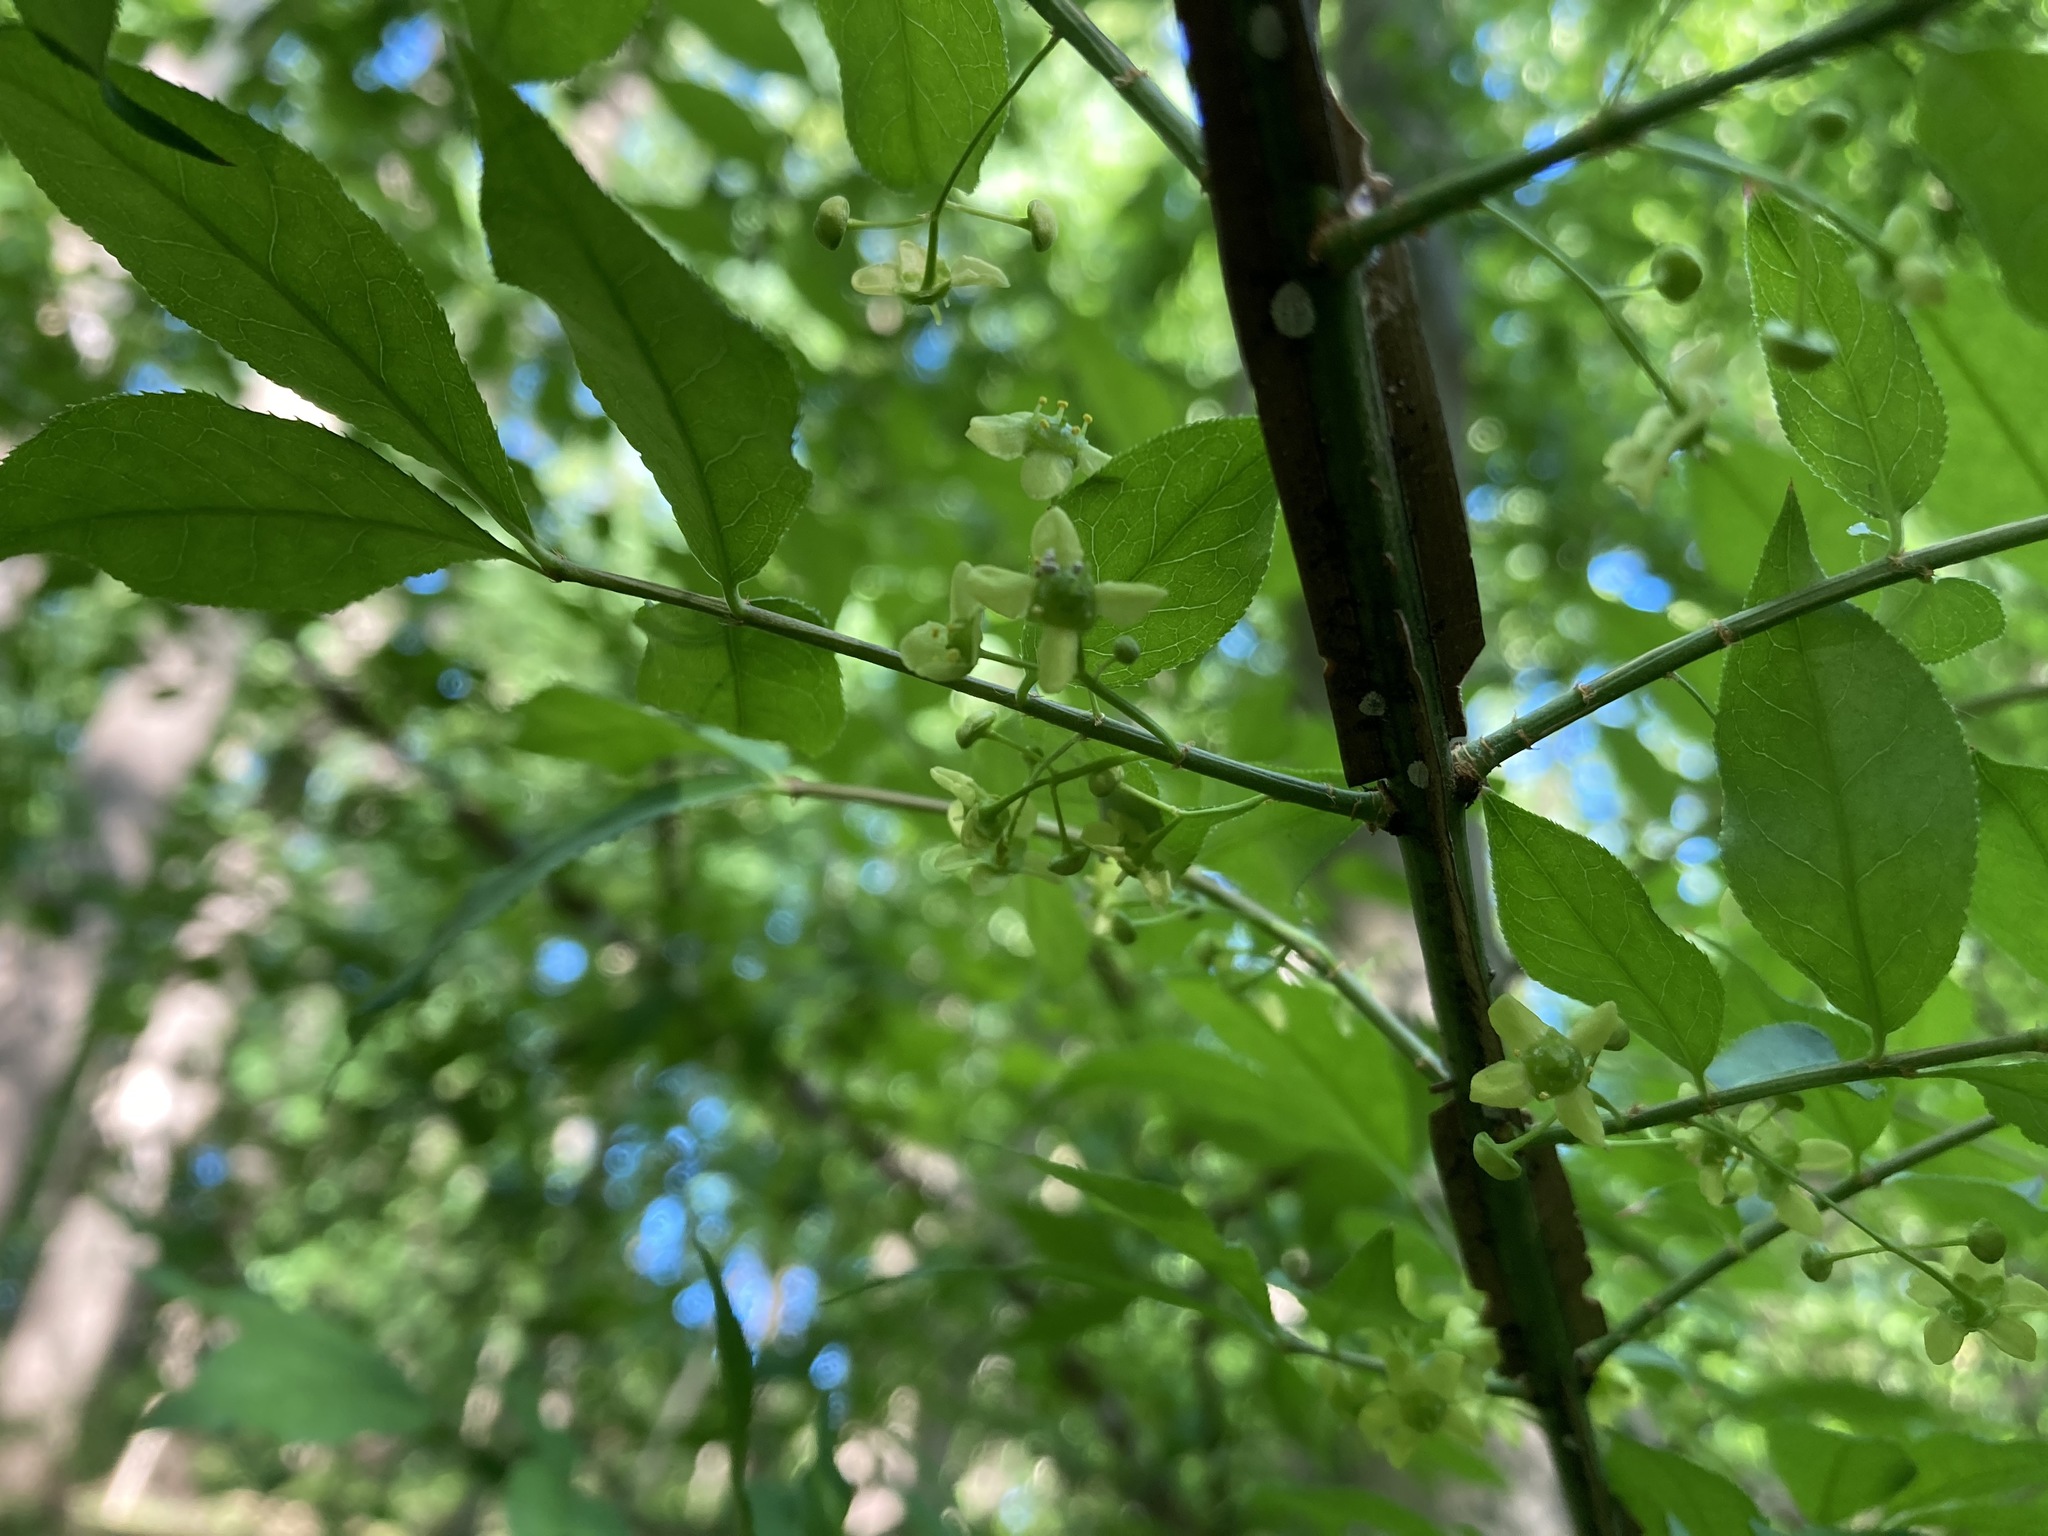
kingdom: Plantae
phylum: Tracheophyta
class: Magnoliopsida
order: Celastrales
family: Celastraceae
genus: Euonymus
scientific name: Euonymus alatus
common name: Winged euonymus
